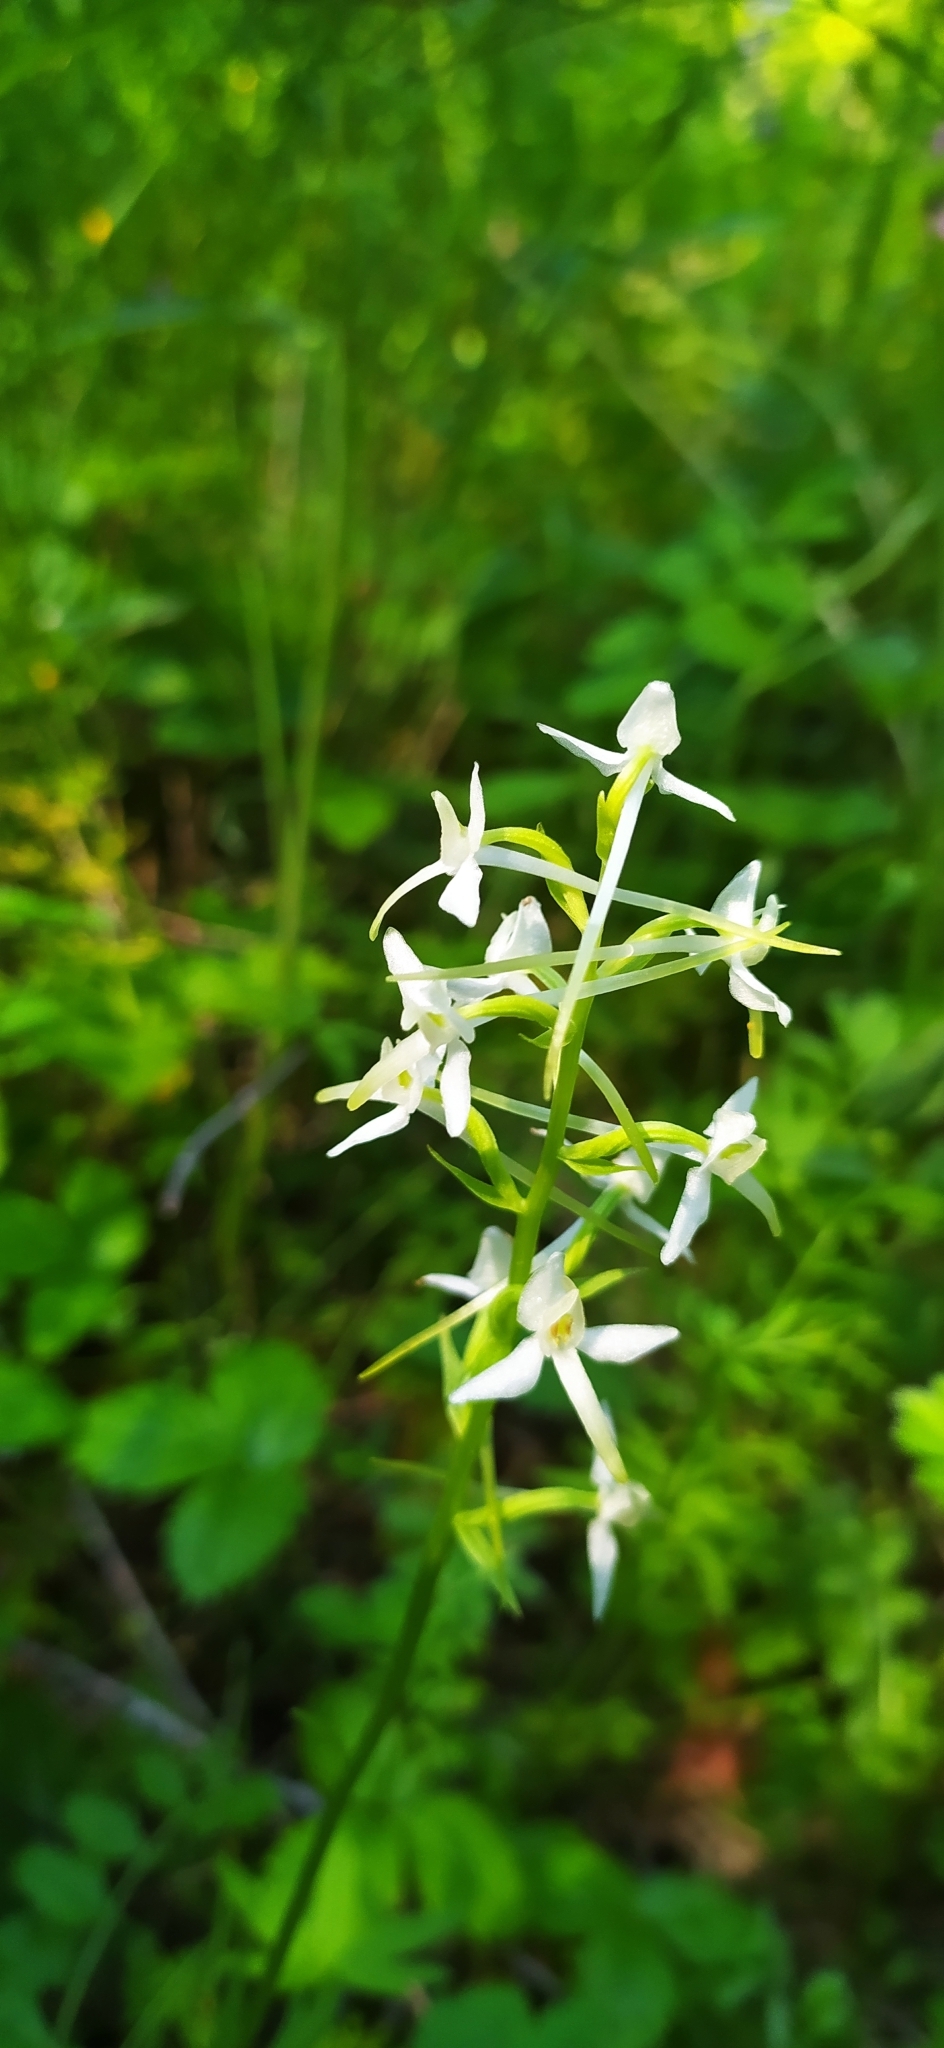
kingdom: Plantae
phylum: Tracheophyta
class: Liliopsida
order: Asparagales
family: Orchidaceae
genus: Platanthera
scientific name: Platanthera bifolia
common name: Lesser butterfly-orchid
